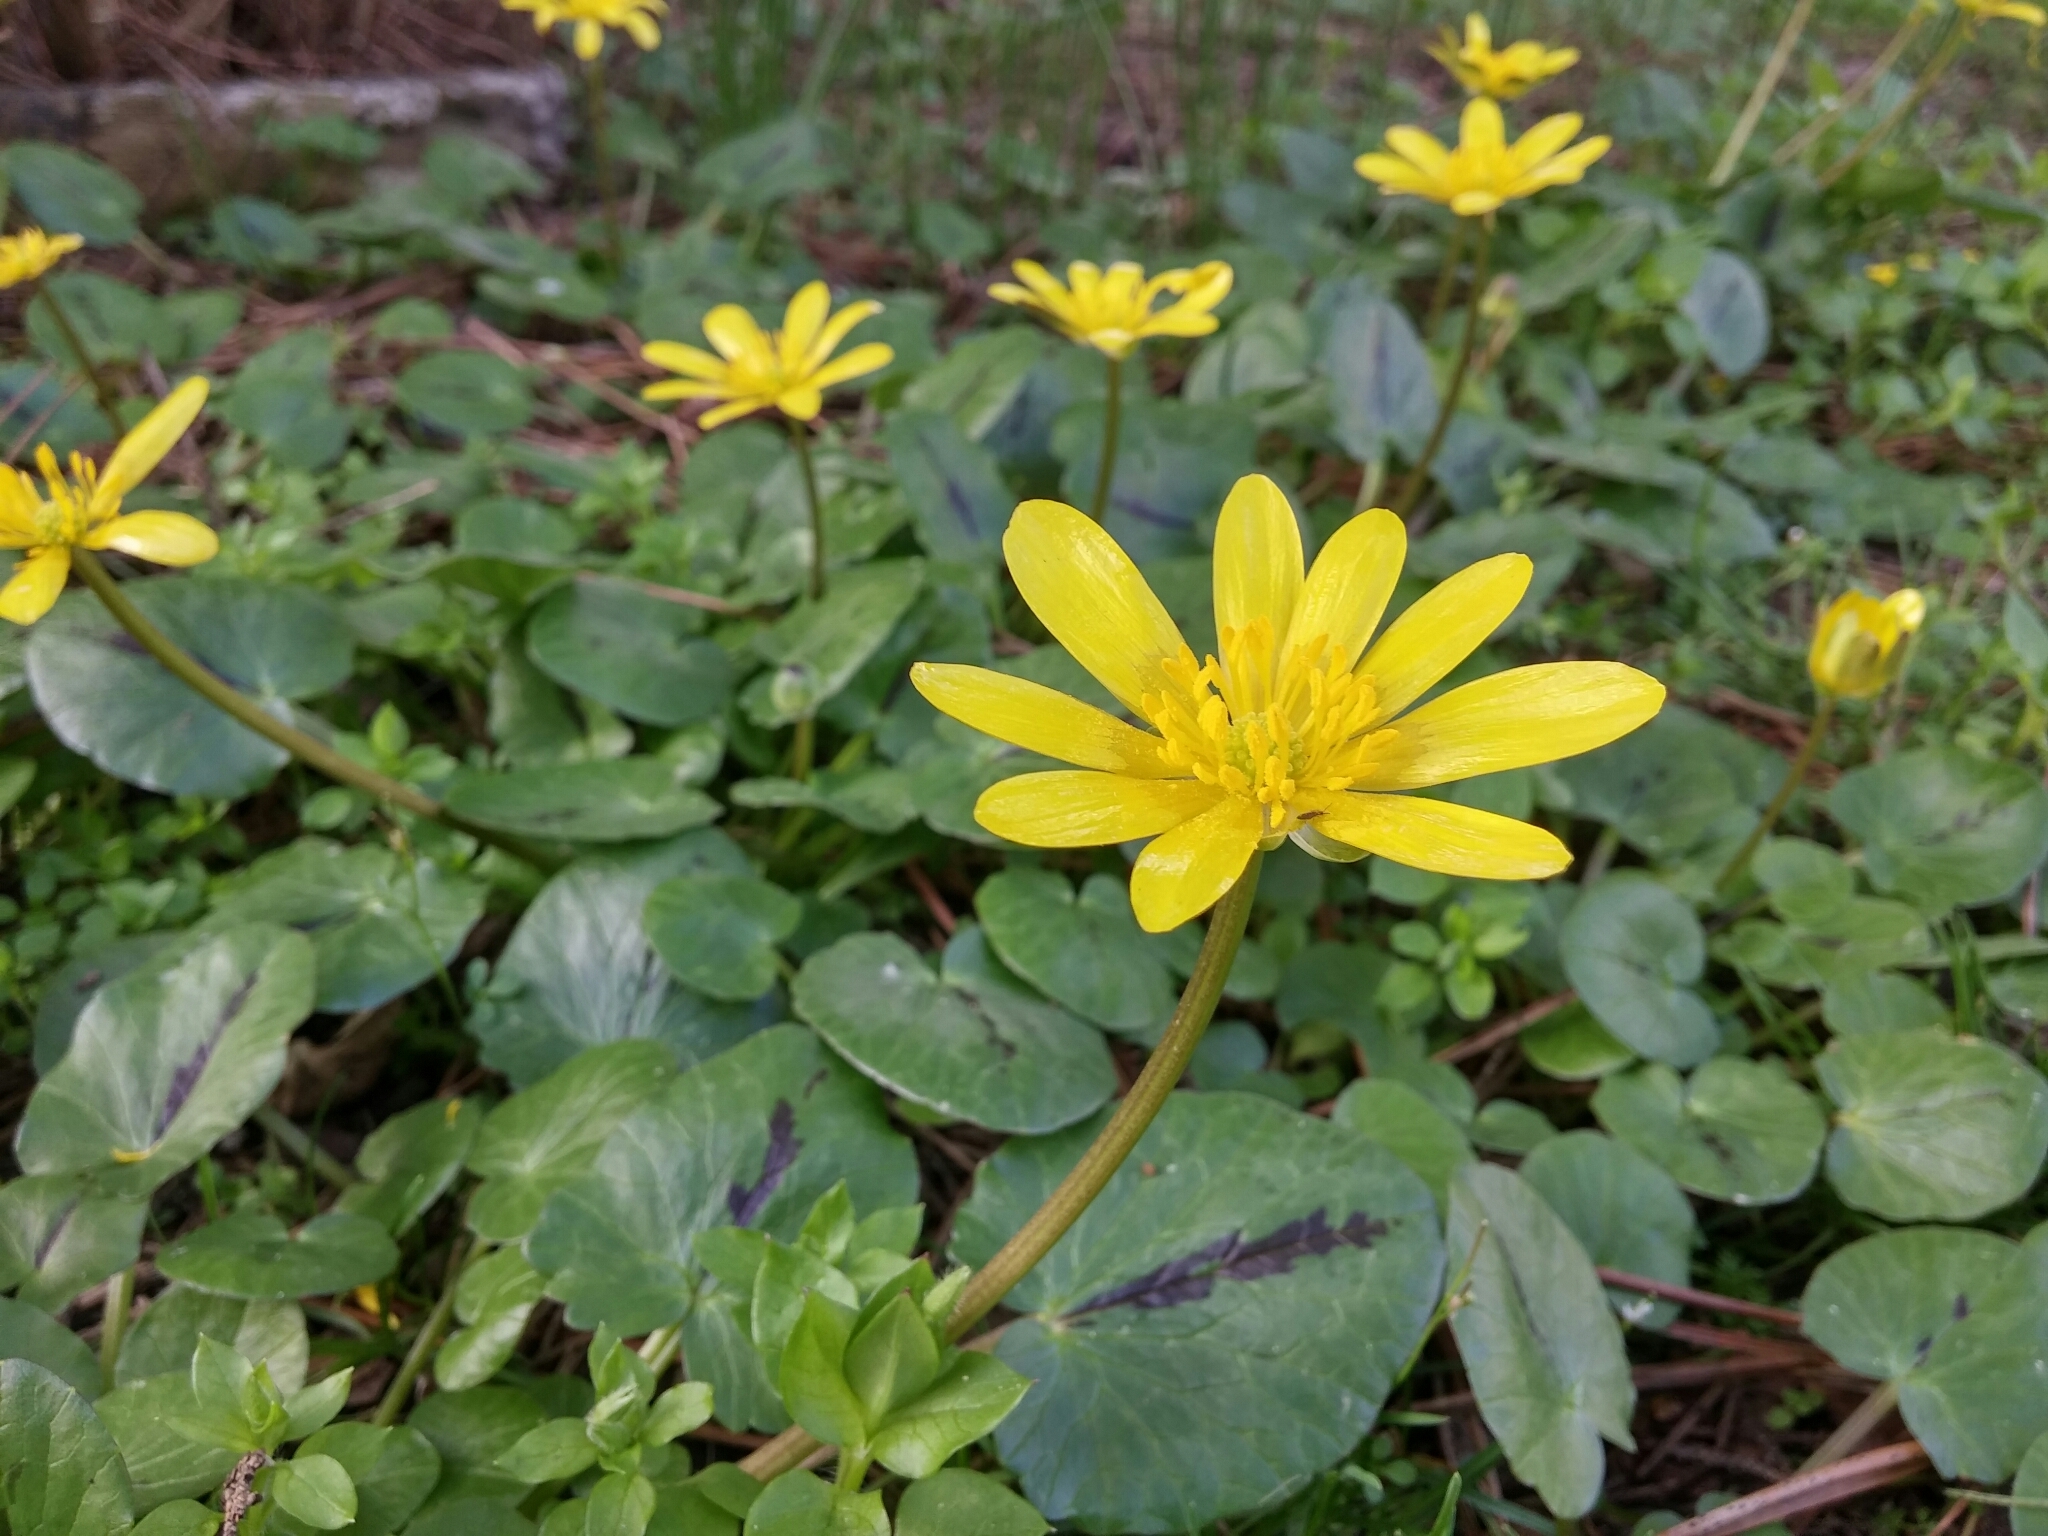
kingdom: Plantae
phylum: Tracheophyta
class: Magnoliopsida
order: Ranunculales
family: Ranunculaceae
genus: Ficaria
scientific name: Ficaria verna
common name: Lesser celandine
